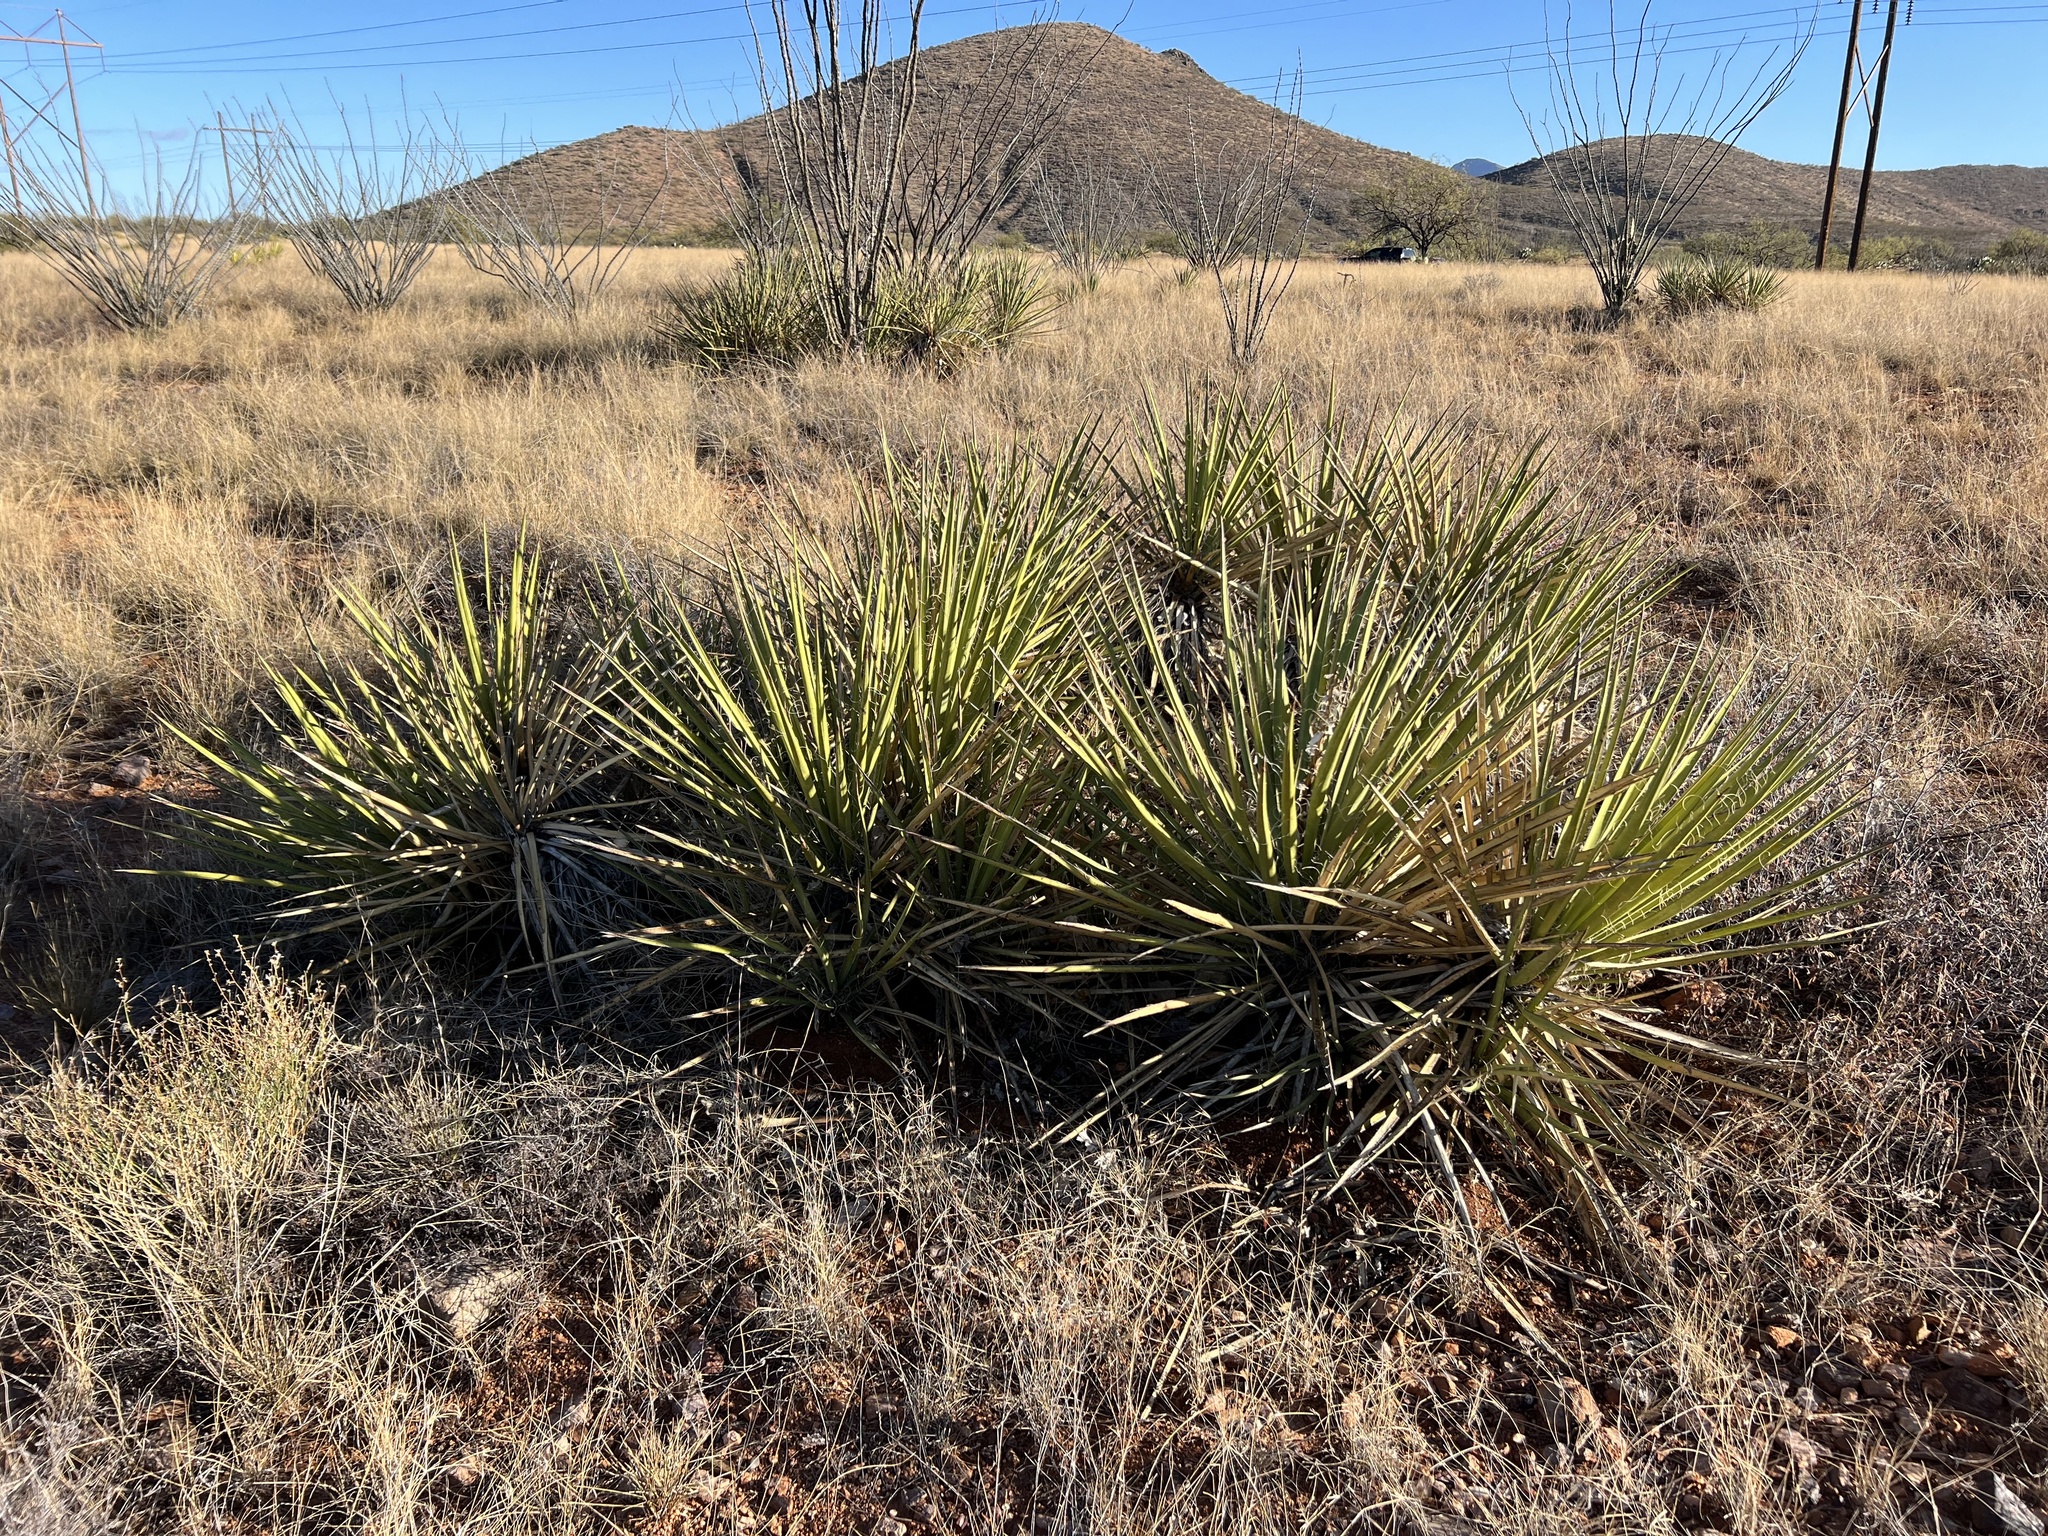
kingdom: Plantae
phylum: Tracheophyta
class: Liliopsida
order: Asparagales
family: Asparagaceae
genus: Yucca
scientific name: Yucca baccata
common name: Banana yucca
